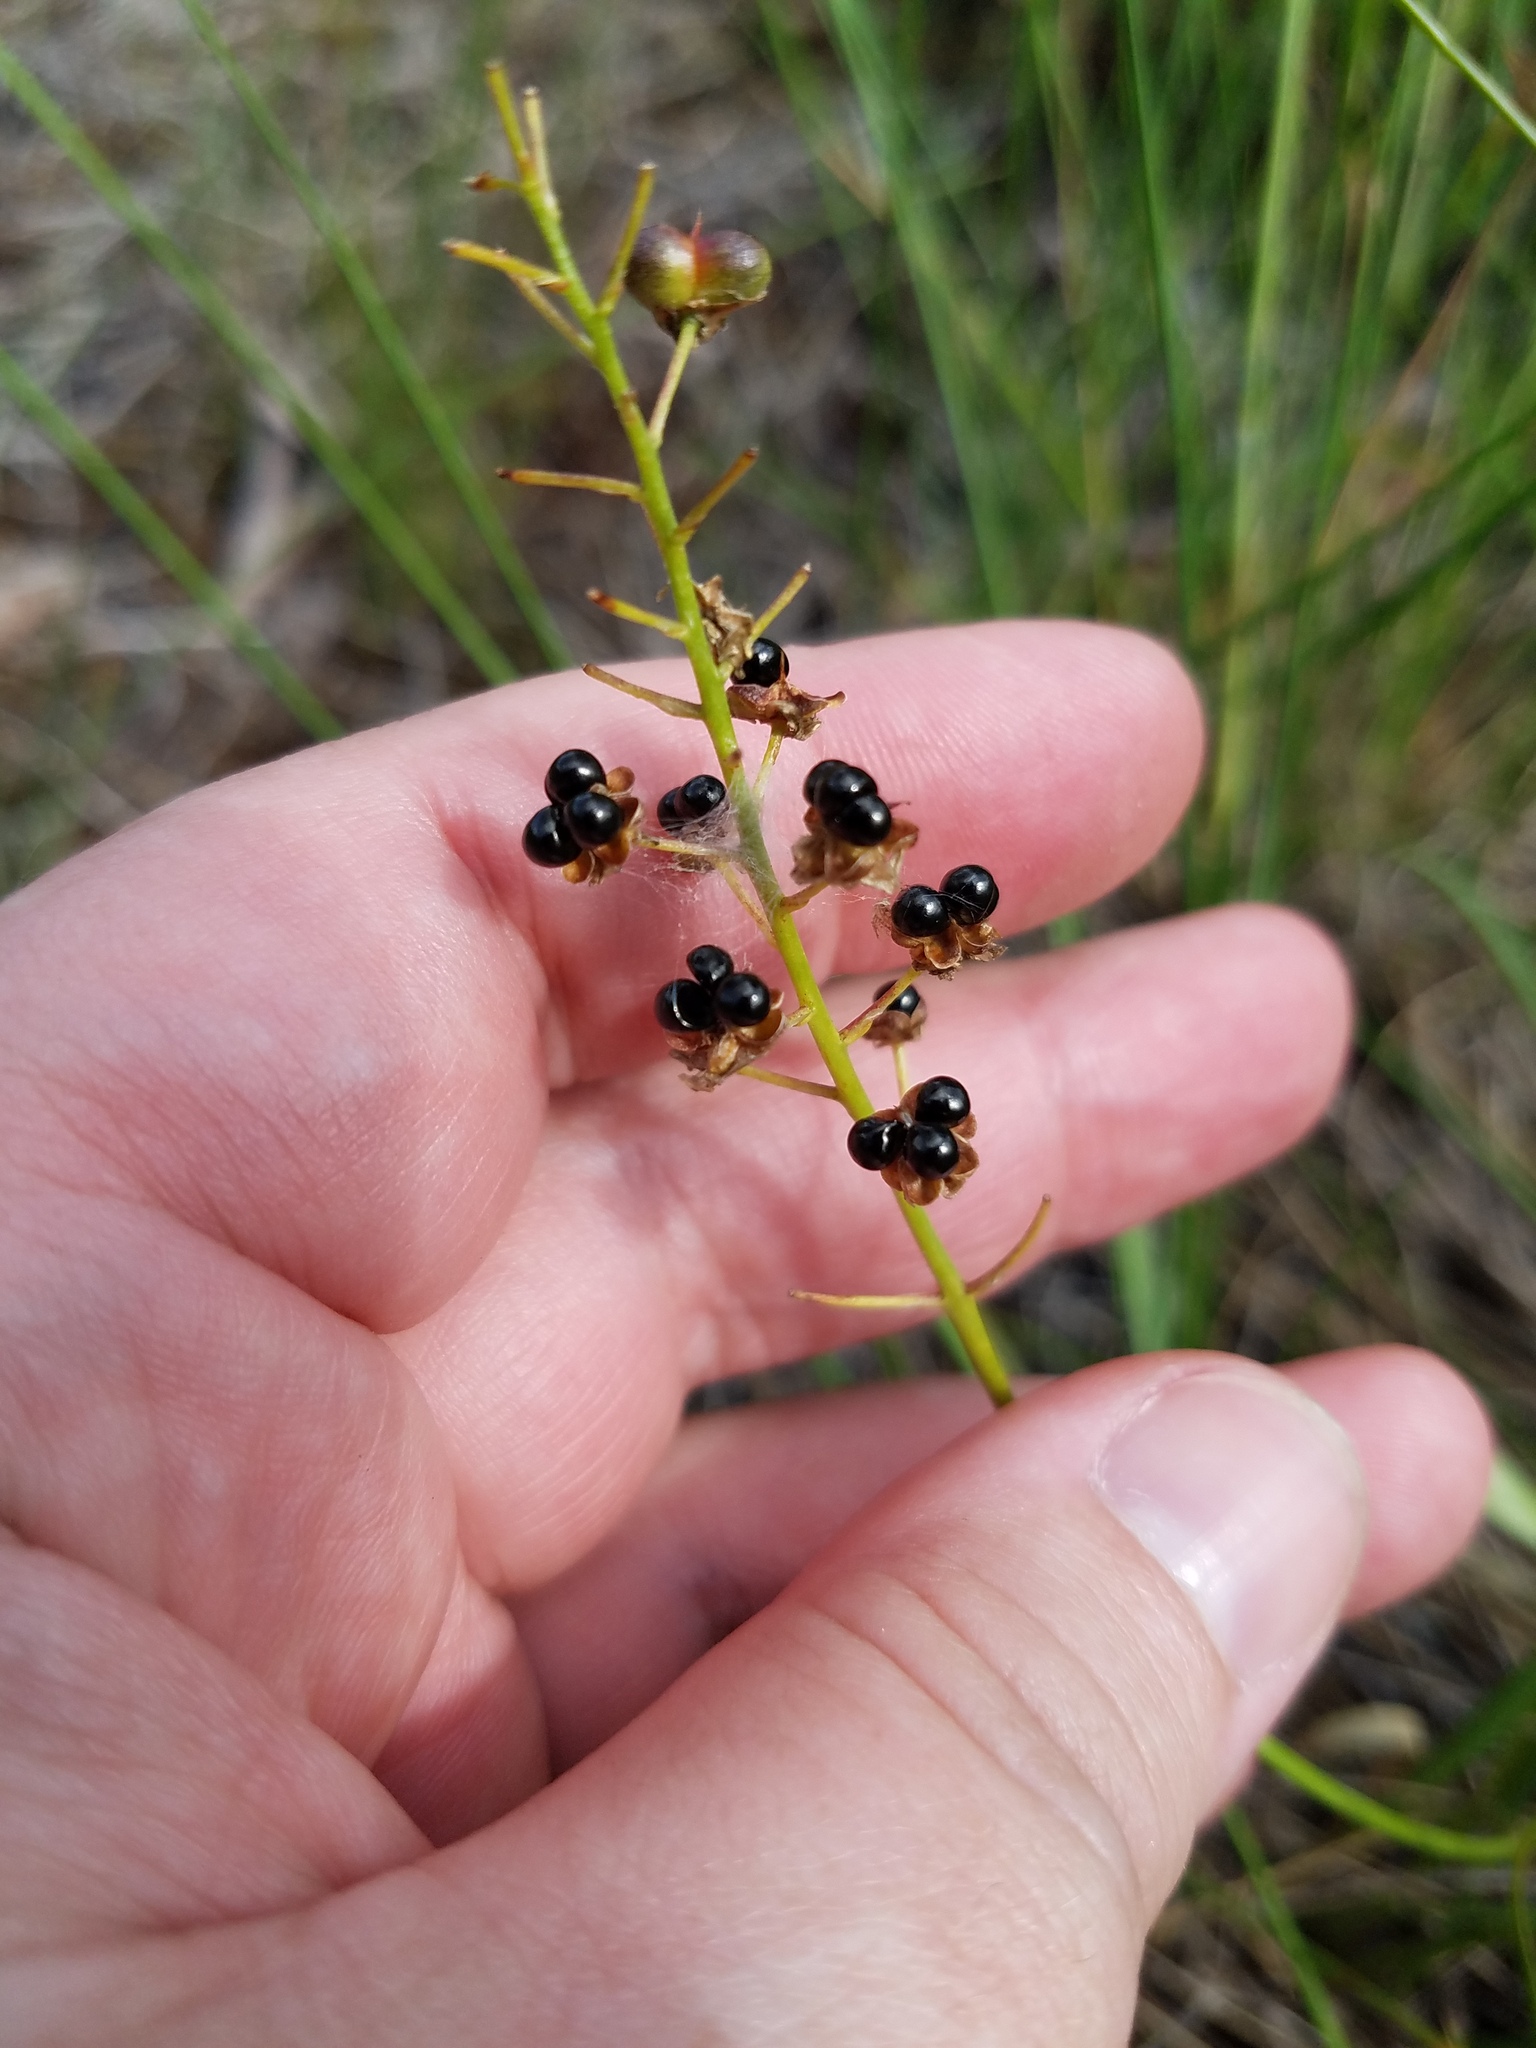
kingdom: Plantae
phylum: Tracheophyta
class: Liliopsida
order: Asparagales
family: Asparagaceae
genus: Schoenolirion
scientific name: Schoenolirion croceum
